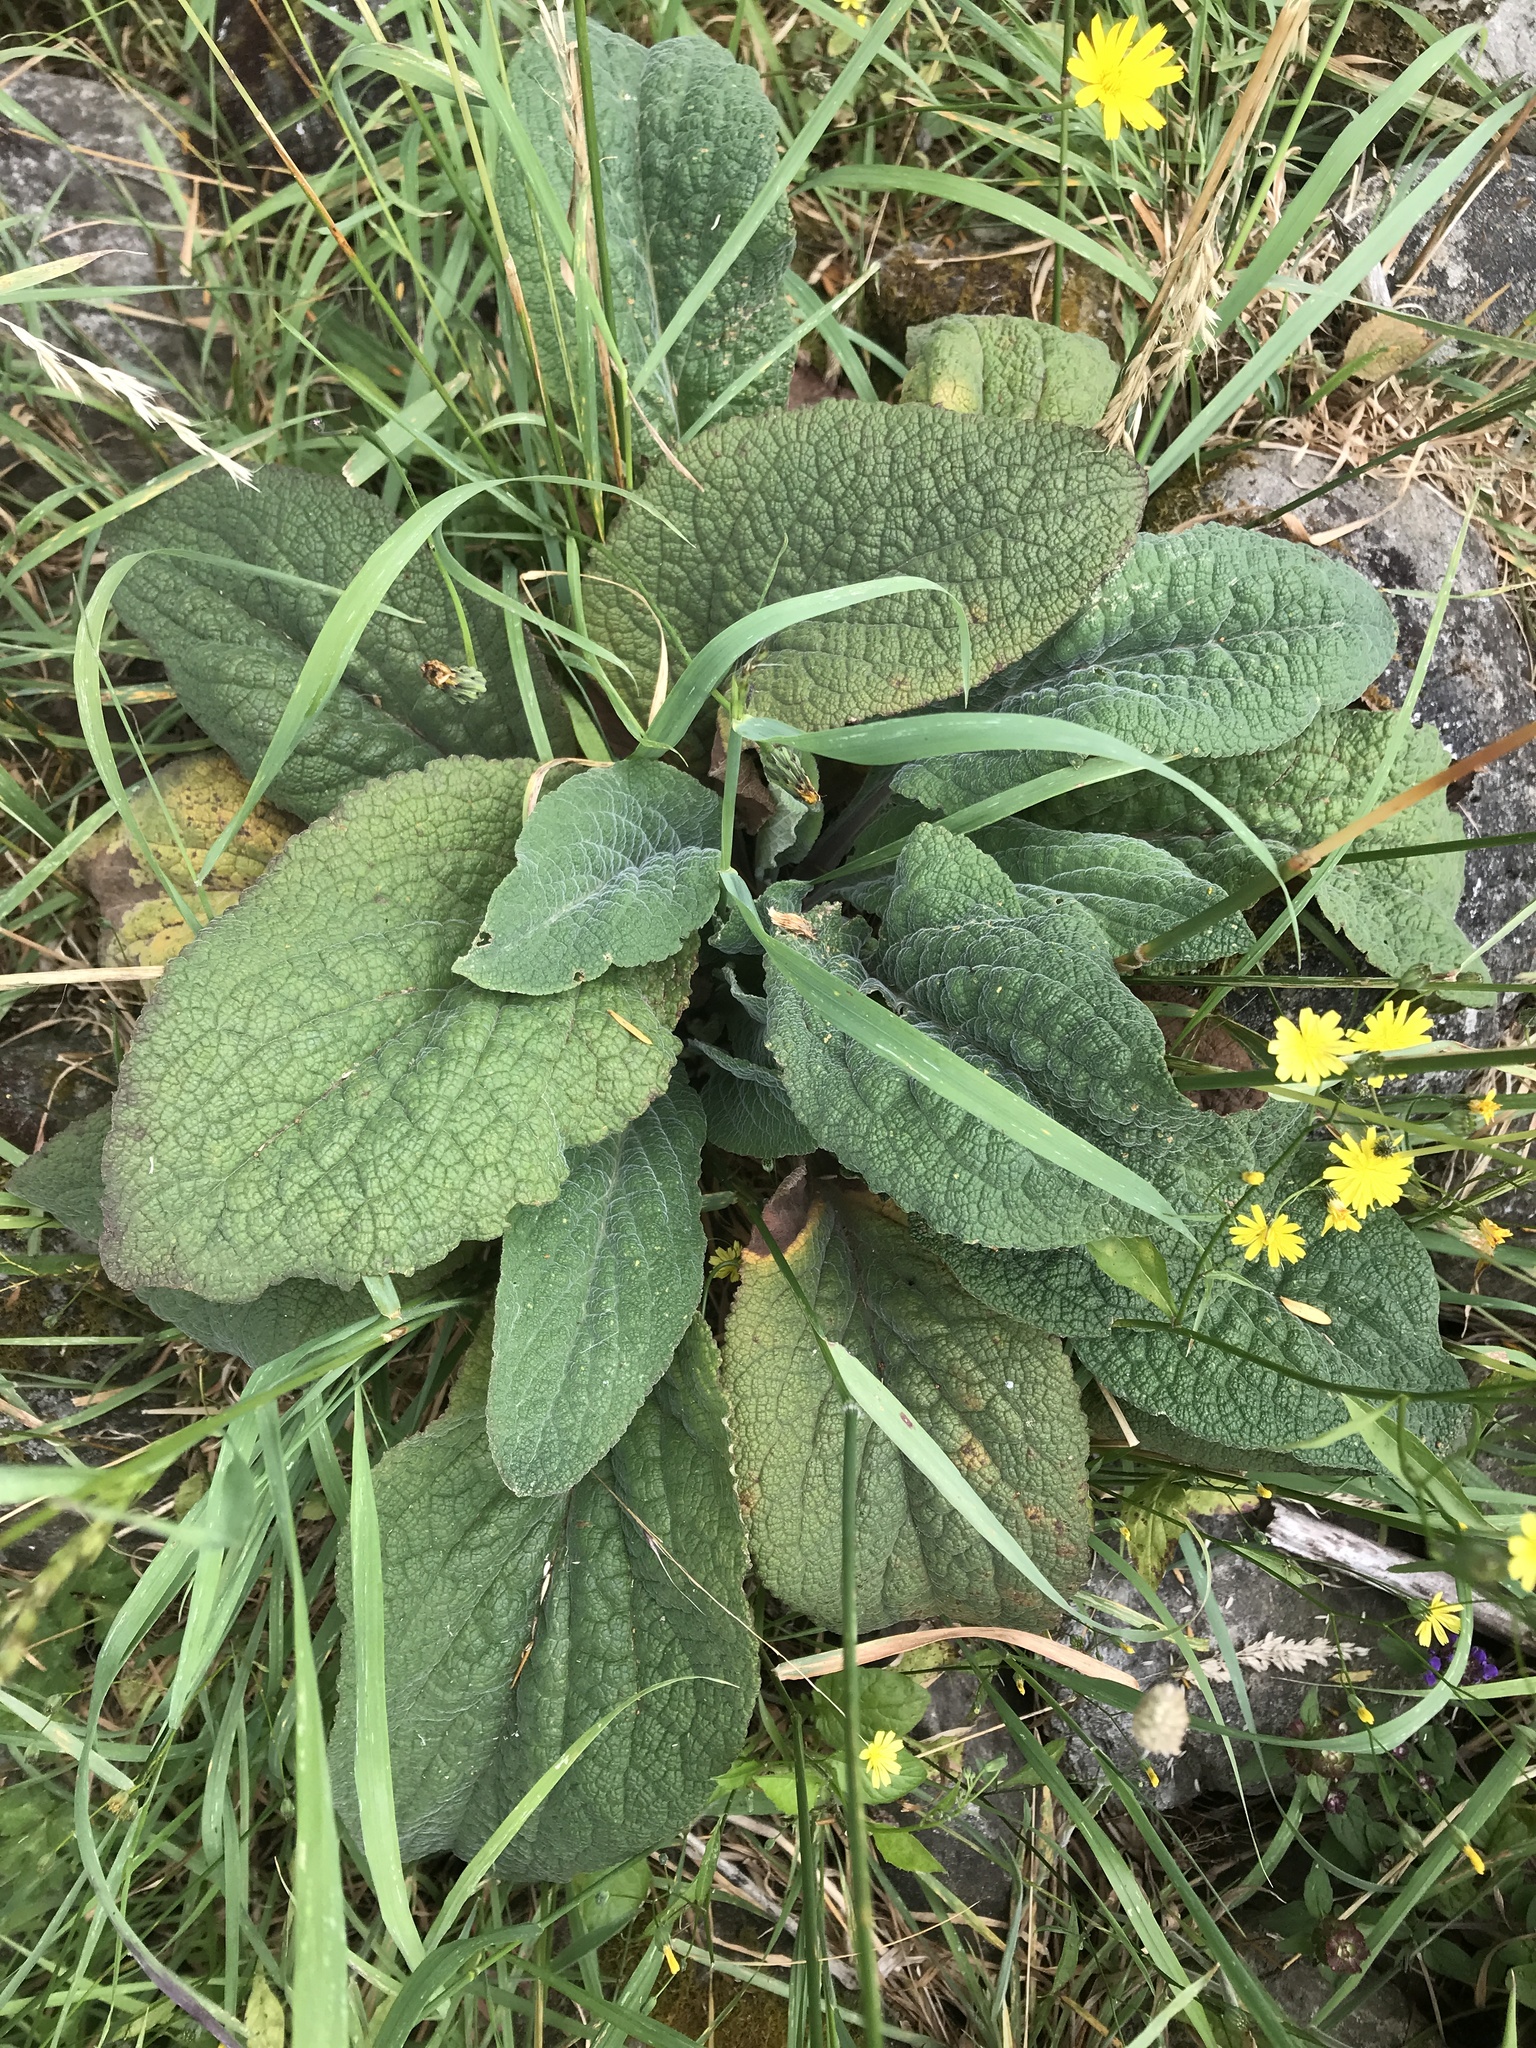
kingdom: Plantae
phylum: Tracheophyta
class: Magnoliopsida
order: Lamiales
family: Plantaginaceae
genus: Digitalis
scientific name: Digitalis purpurea
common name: Foxglove
